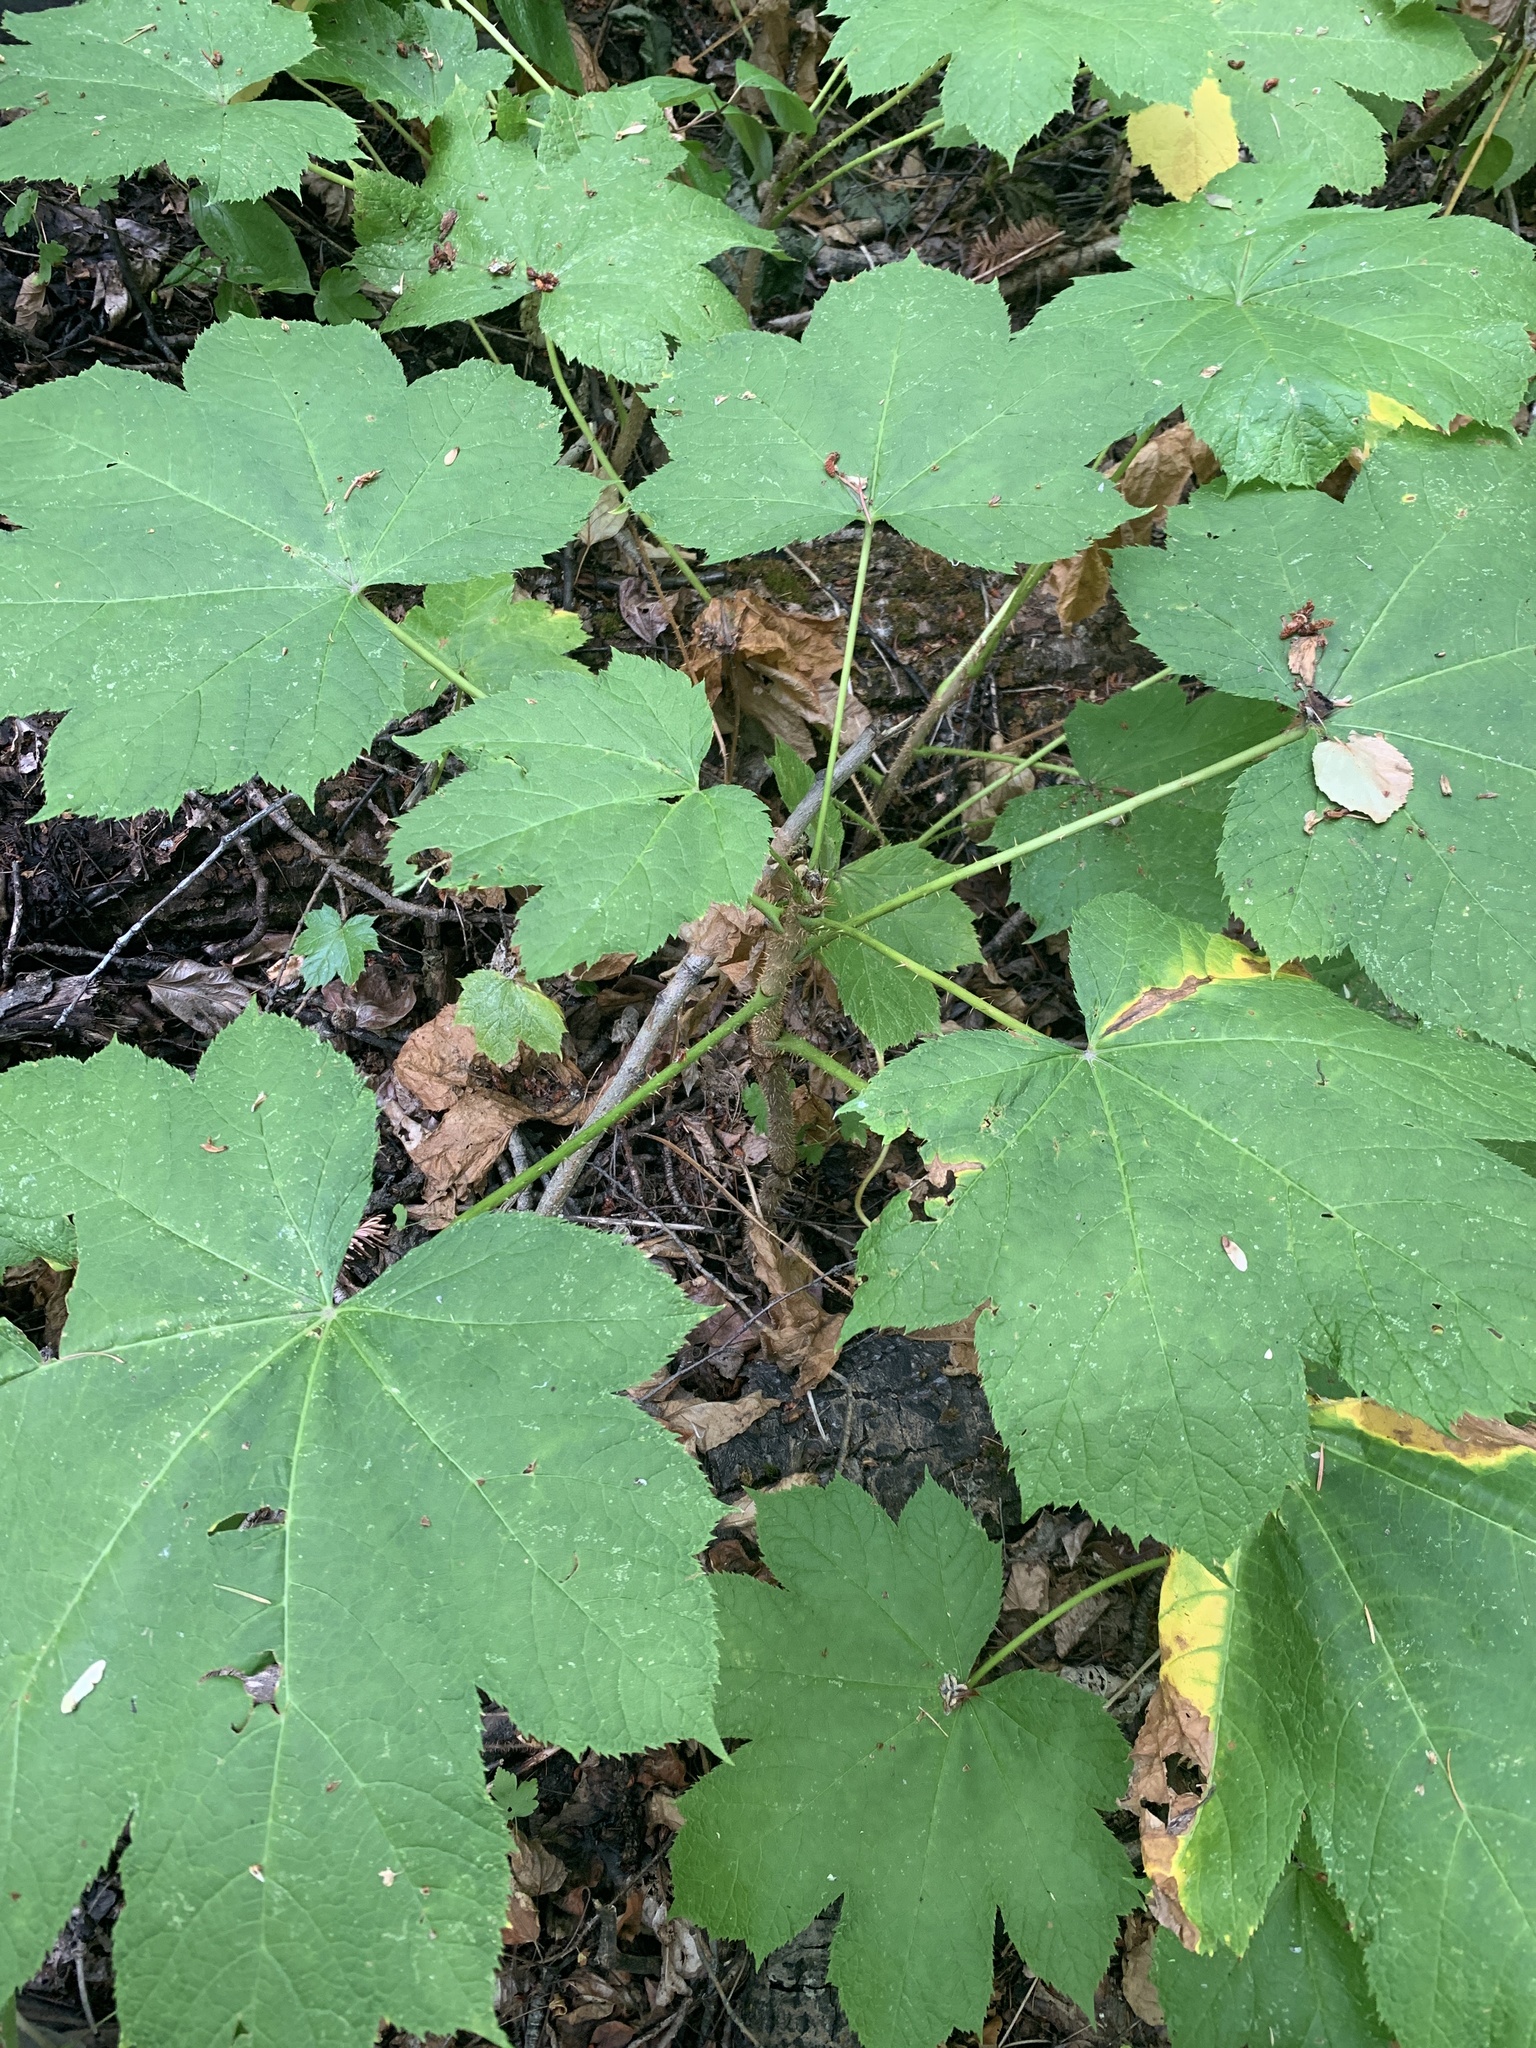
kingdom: Plantae
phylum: Tracheophyta
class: Magnoliopsida
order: Apiales
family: Araliaceae
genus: Oplopanax
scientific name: Oplopanax horridus
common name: Devil's walking-stick
